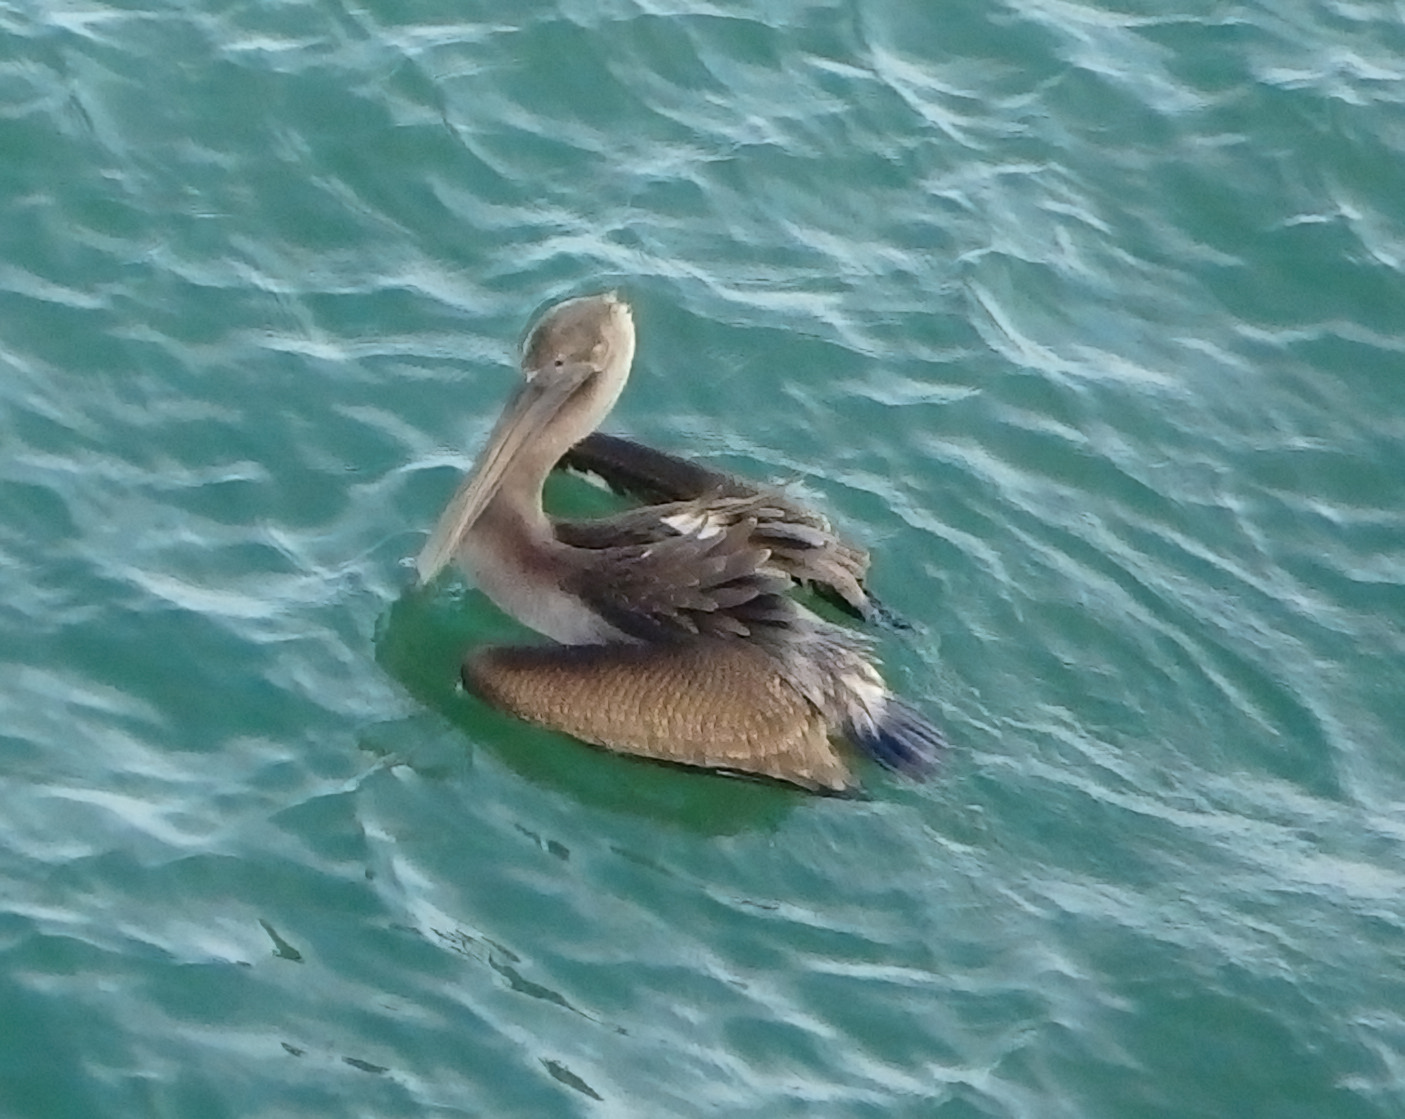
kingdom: Animalia
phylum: Chordata
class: Aves
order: Pelecaniformes
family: Pelecanidae
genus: Pelecanus
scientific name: Pelecanus occidentalis
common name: Brown pelican
